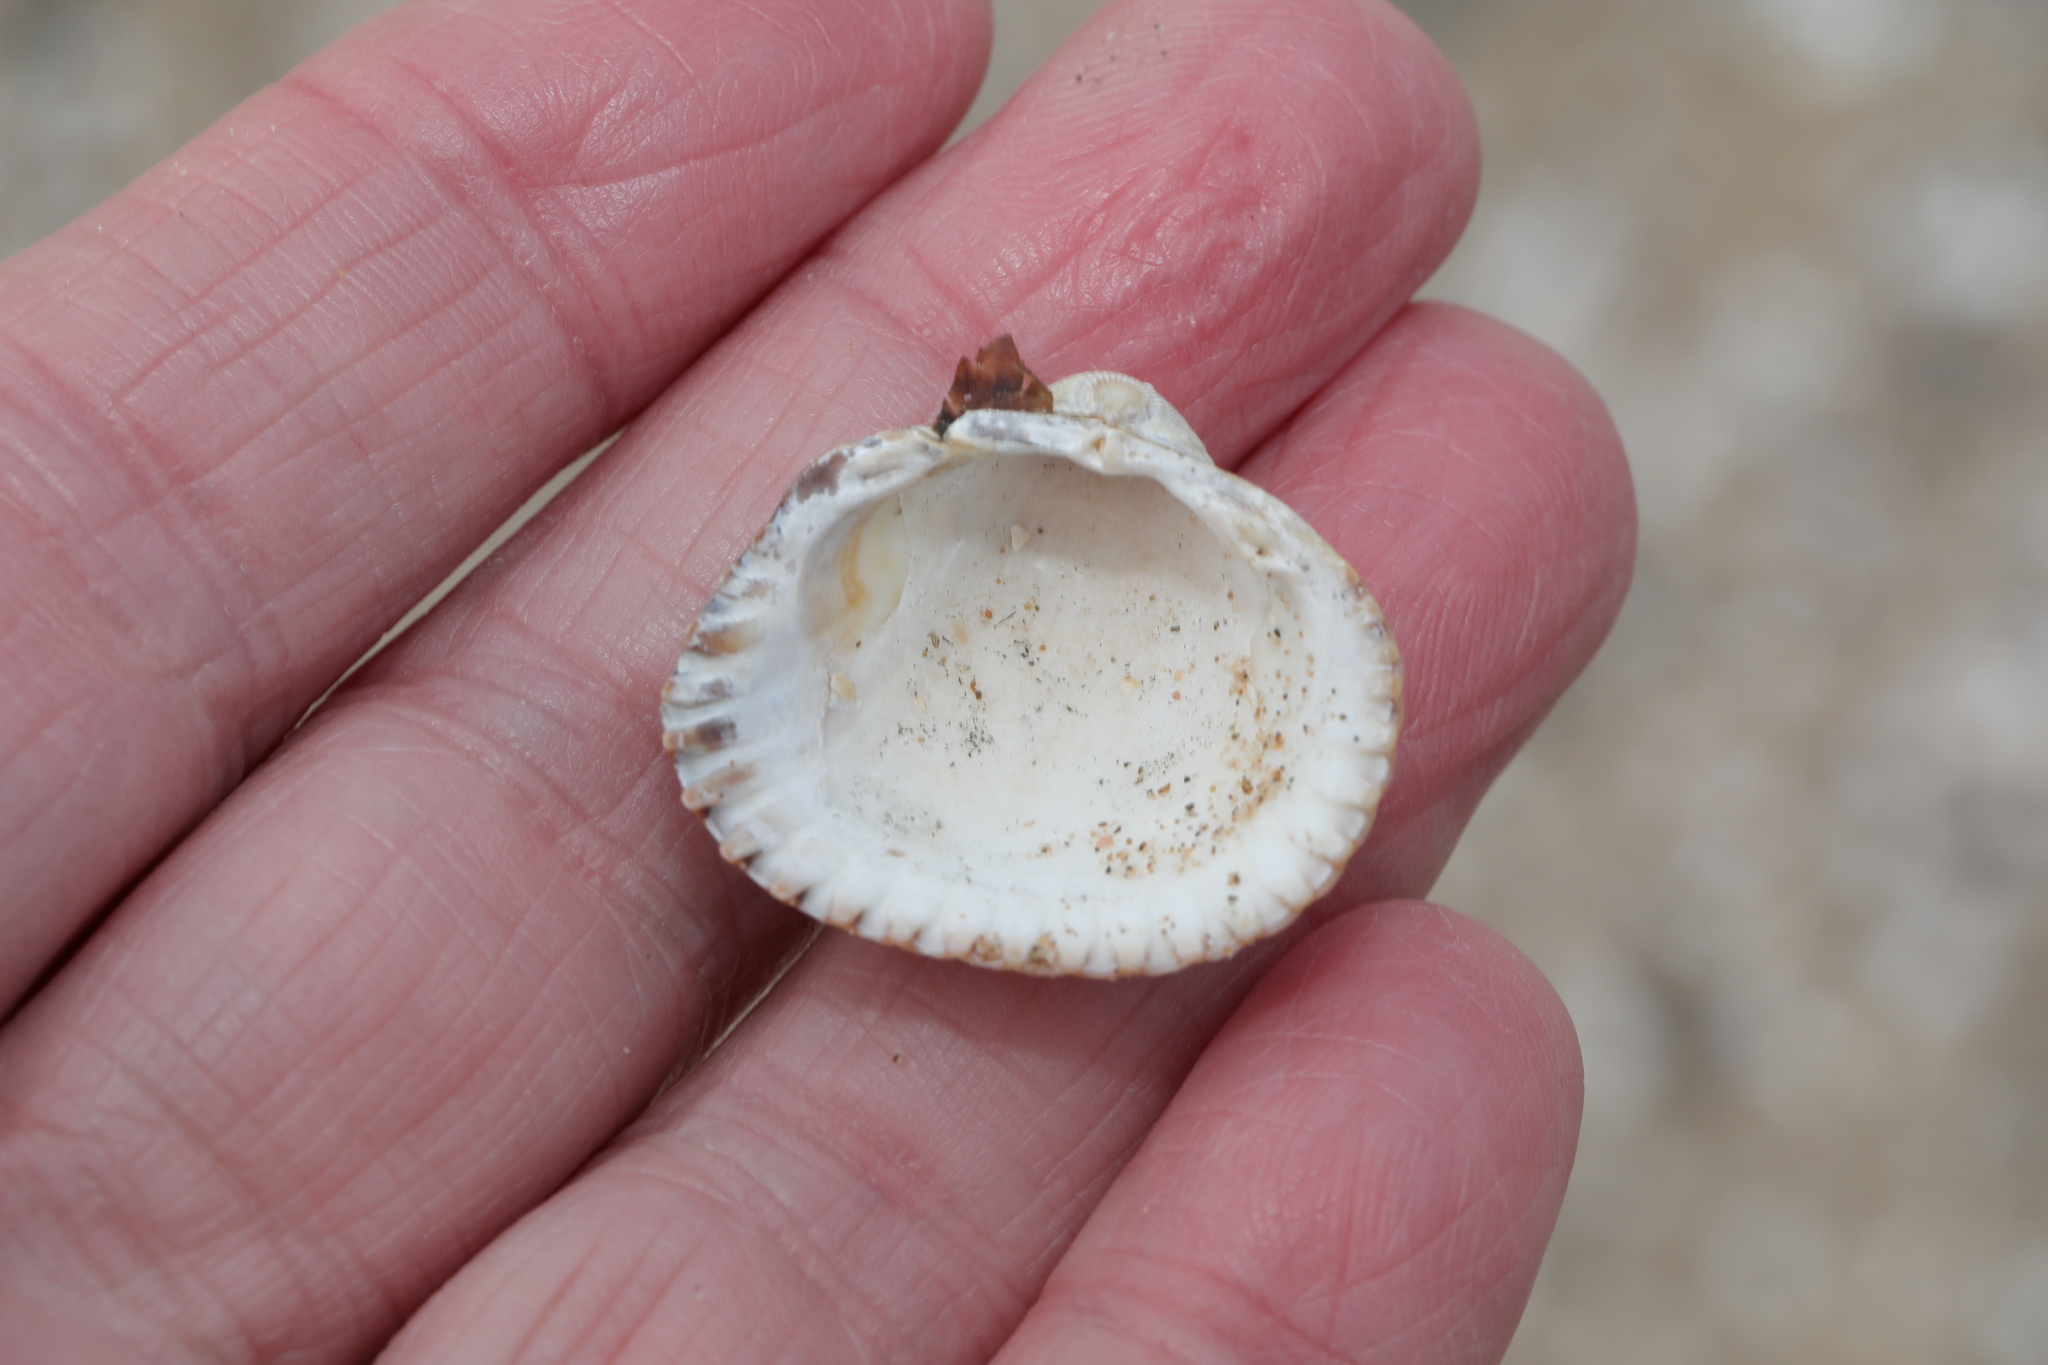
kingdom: Animalia
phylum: Mollusca
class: Bivalvia
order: Cardiida
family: Cardiidae
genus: Cerastoderma
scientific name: Cerastoderma edule
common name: Common cockle
